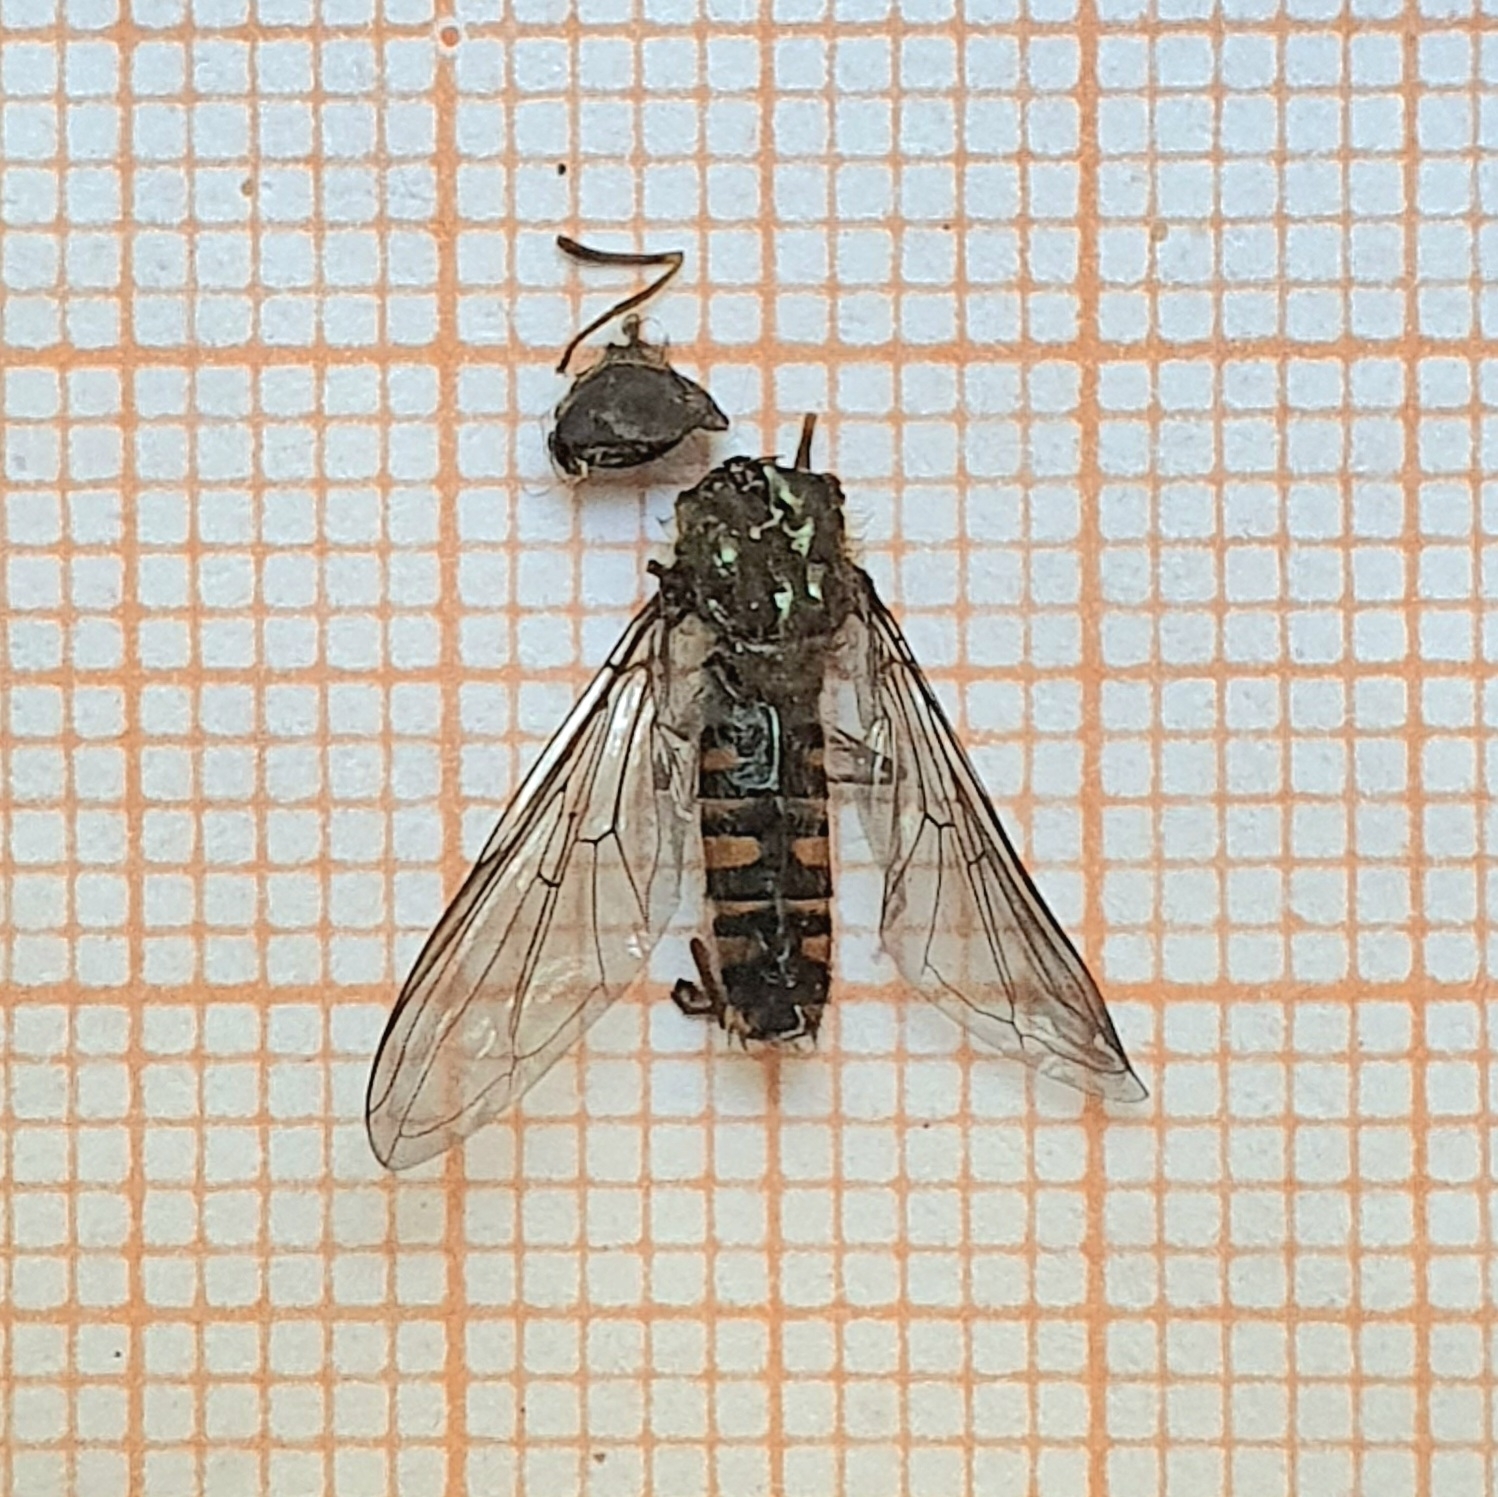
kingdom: Animalia
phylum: Arthropoda
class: Insecta
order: Diptera
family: Syrphidae
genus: Episyrphus
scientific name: Episyrphus balteatus
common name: Marmalade hoverfly
